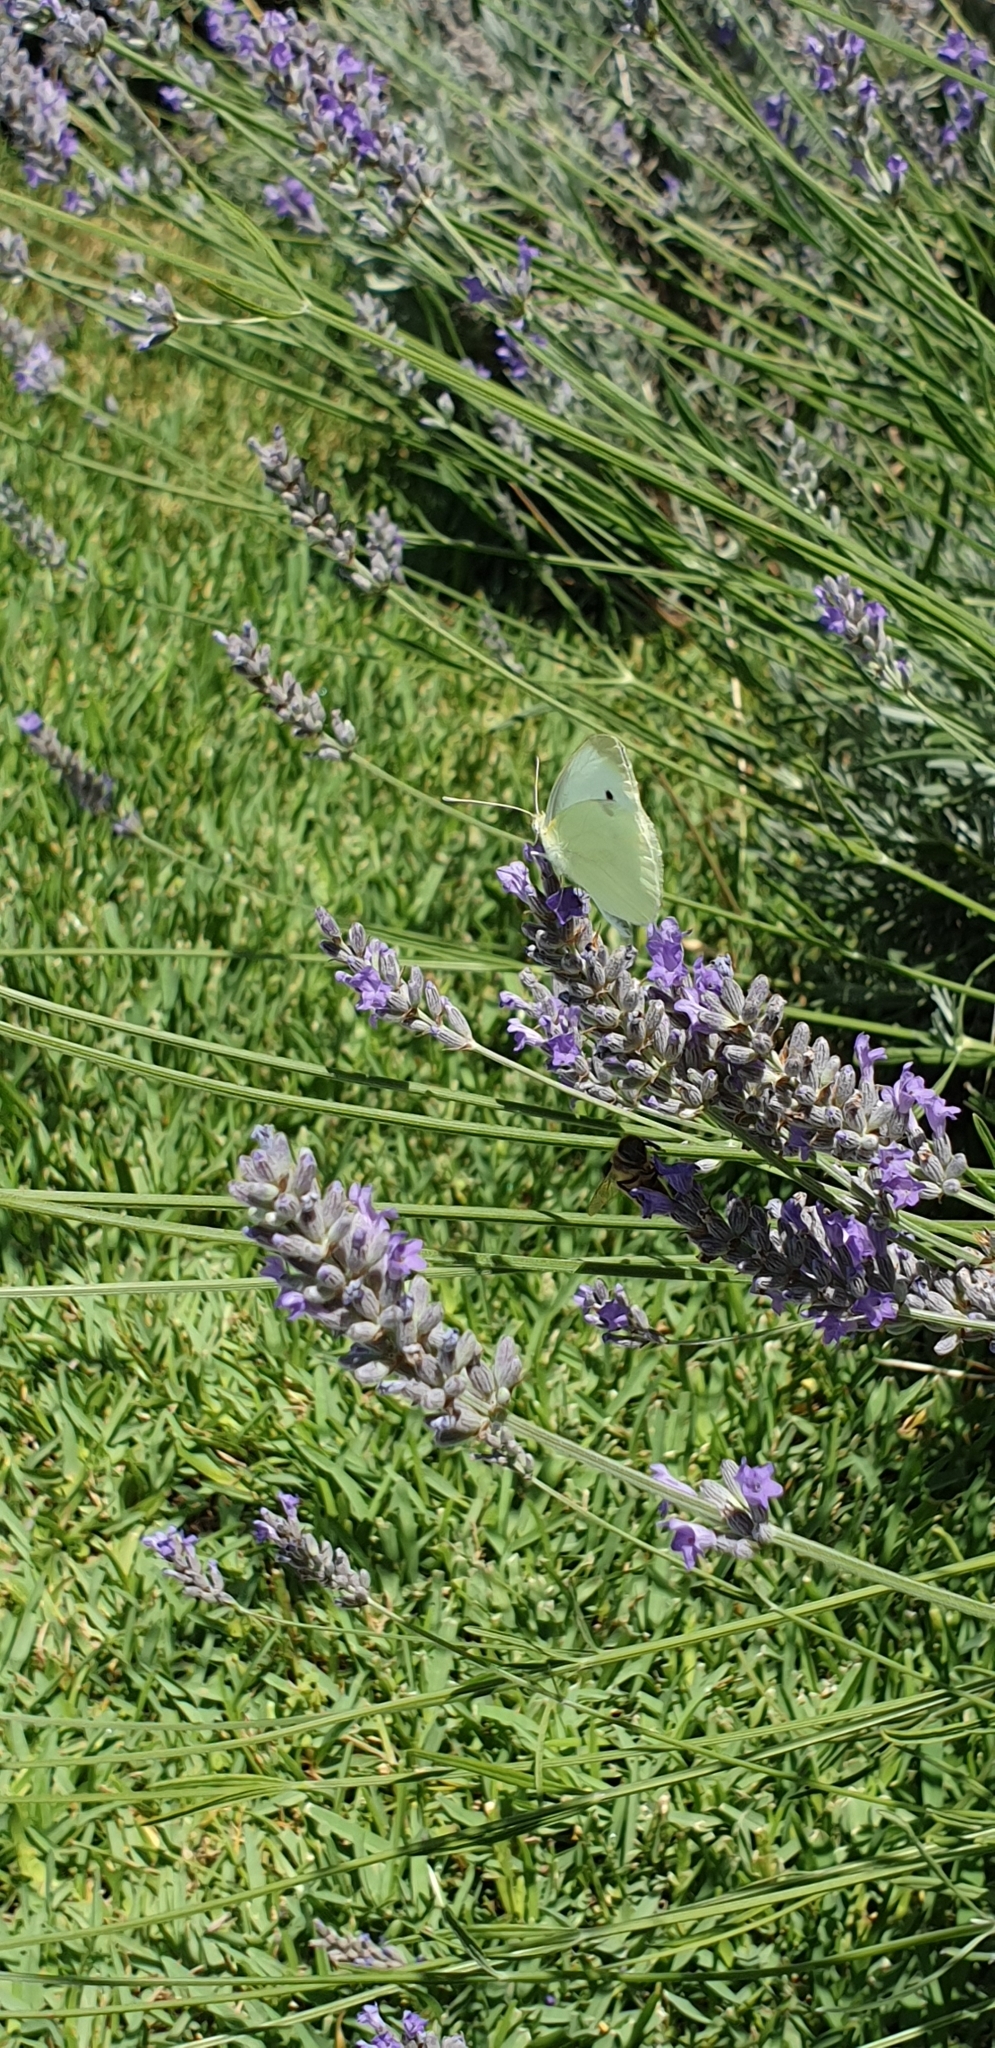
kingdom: Animalia
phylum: Arthropoda
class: Insecta
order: Lepidoptera
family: Pieridae
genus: Pieris
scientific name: Pieris rapae
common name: Small white
